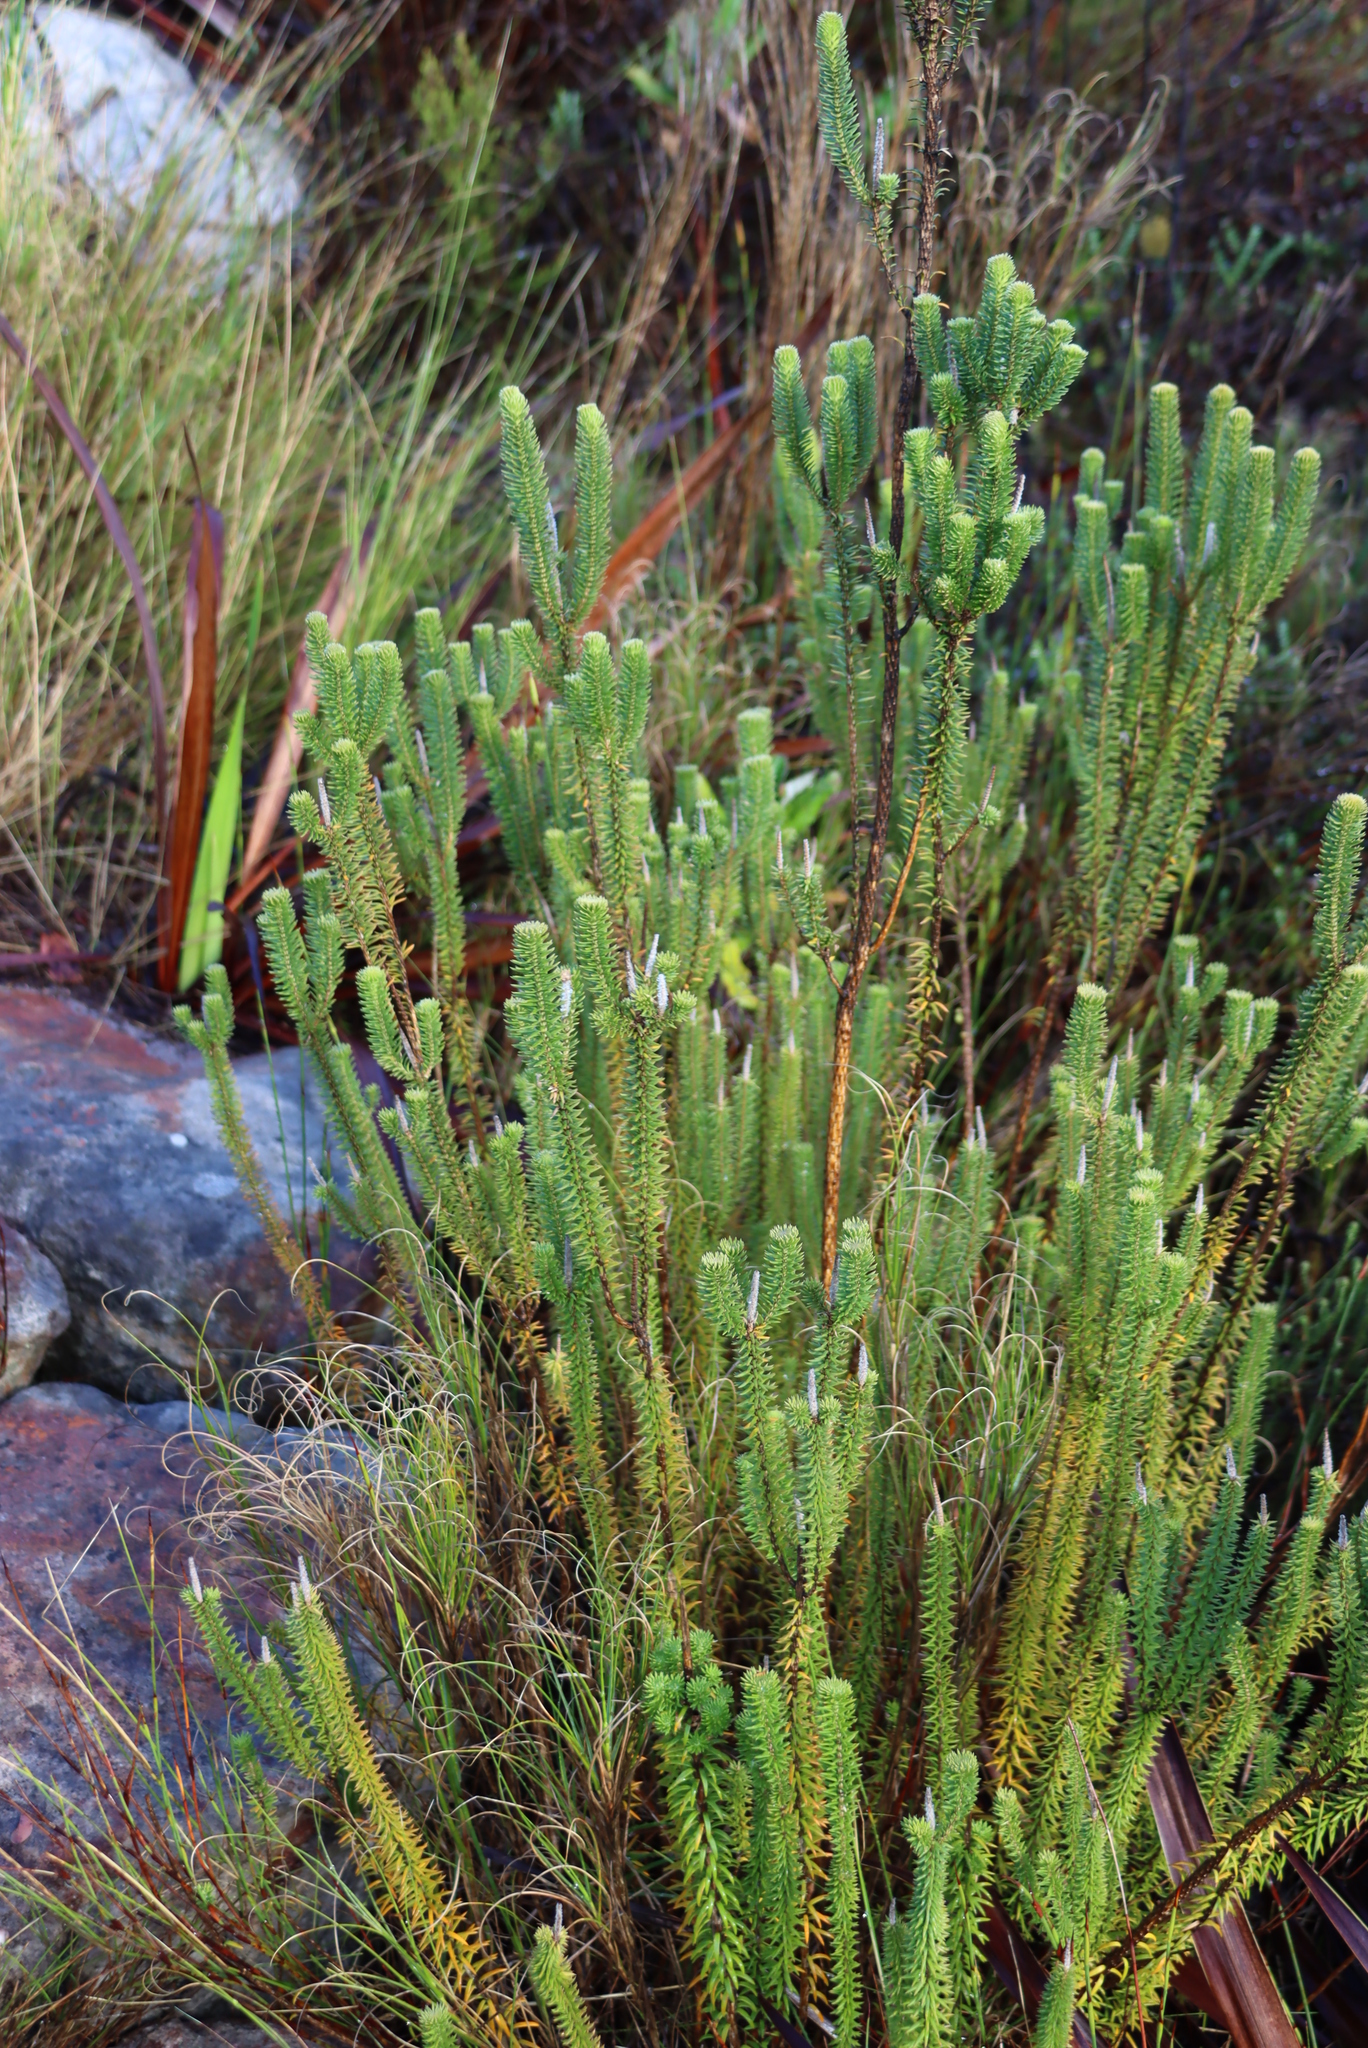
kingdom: Plantae
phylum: Tracheophyta
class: Magnoliopsida
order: Lamiales
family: Stilbaceae
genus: Stilbe
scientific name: Stilbe vestita
